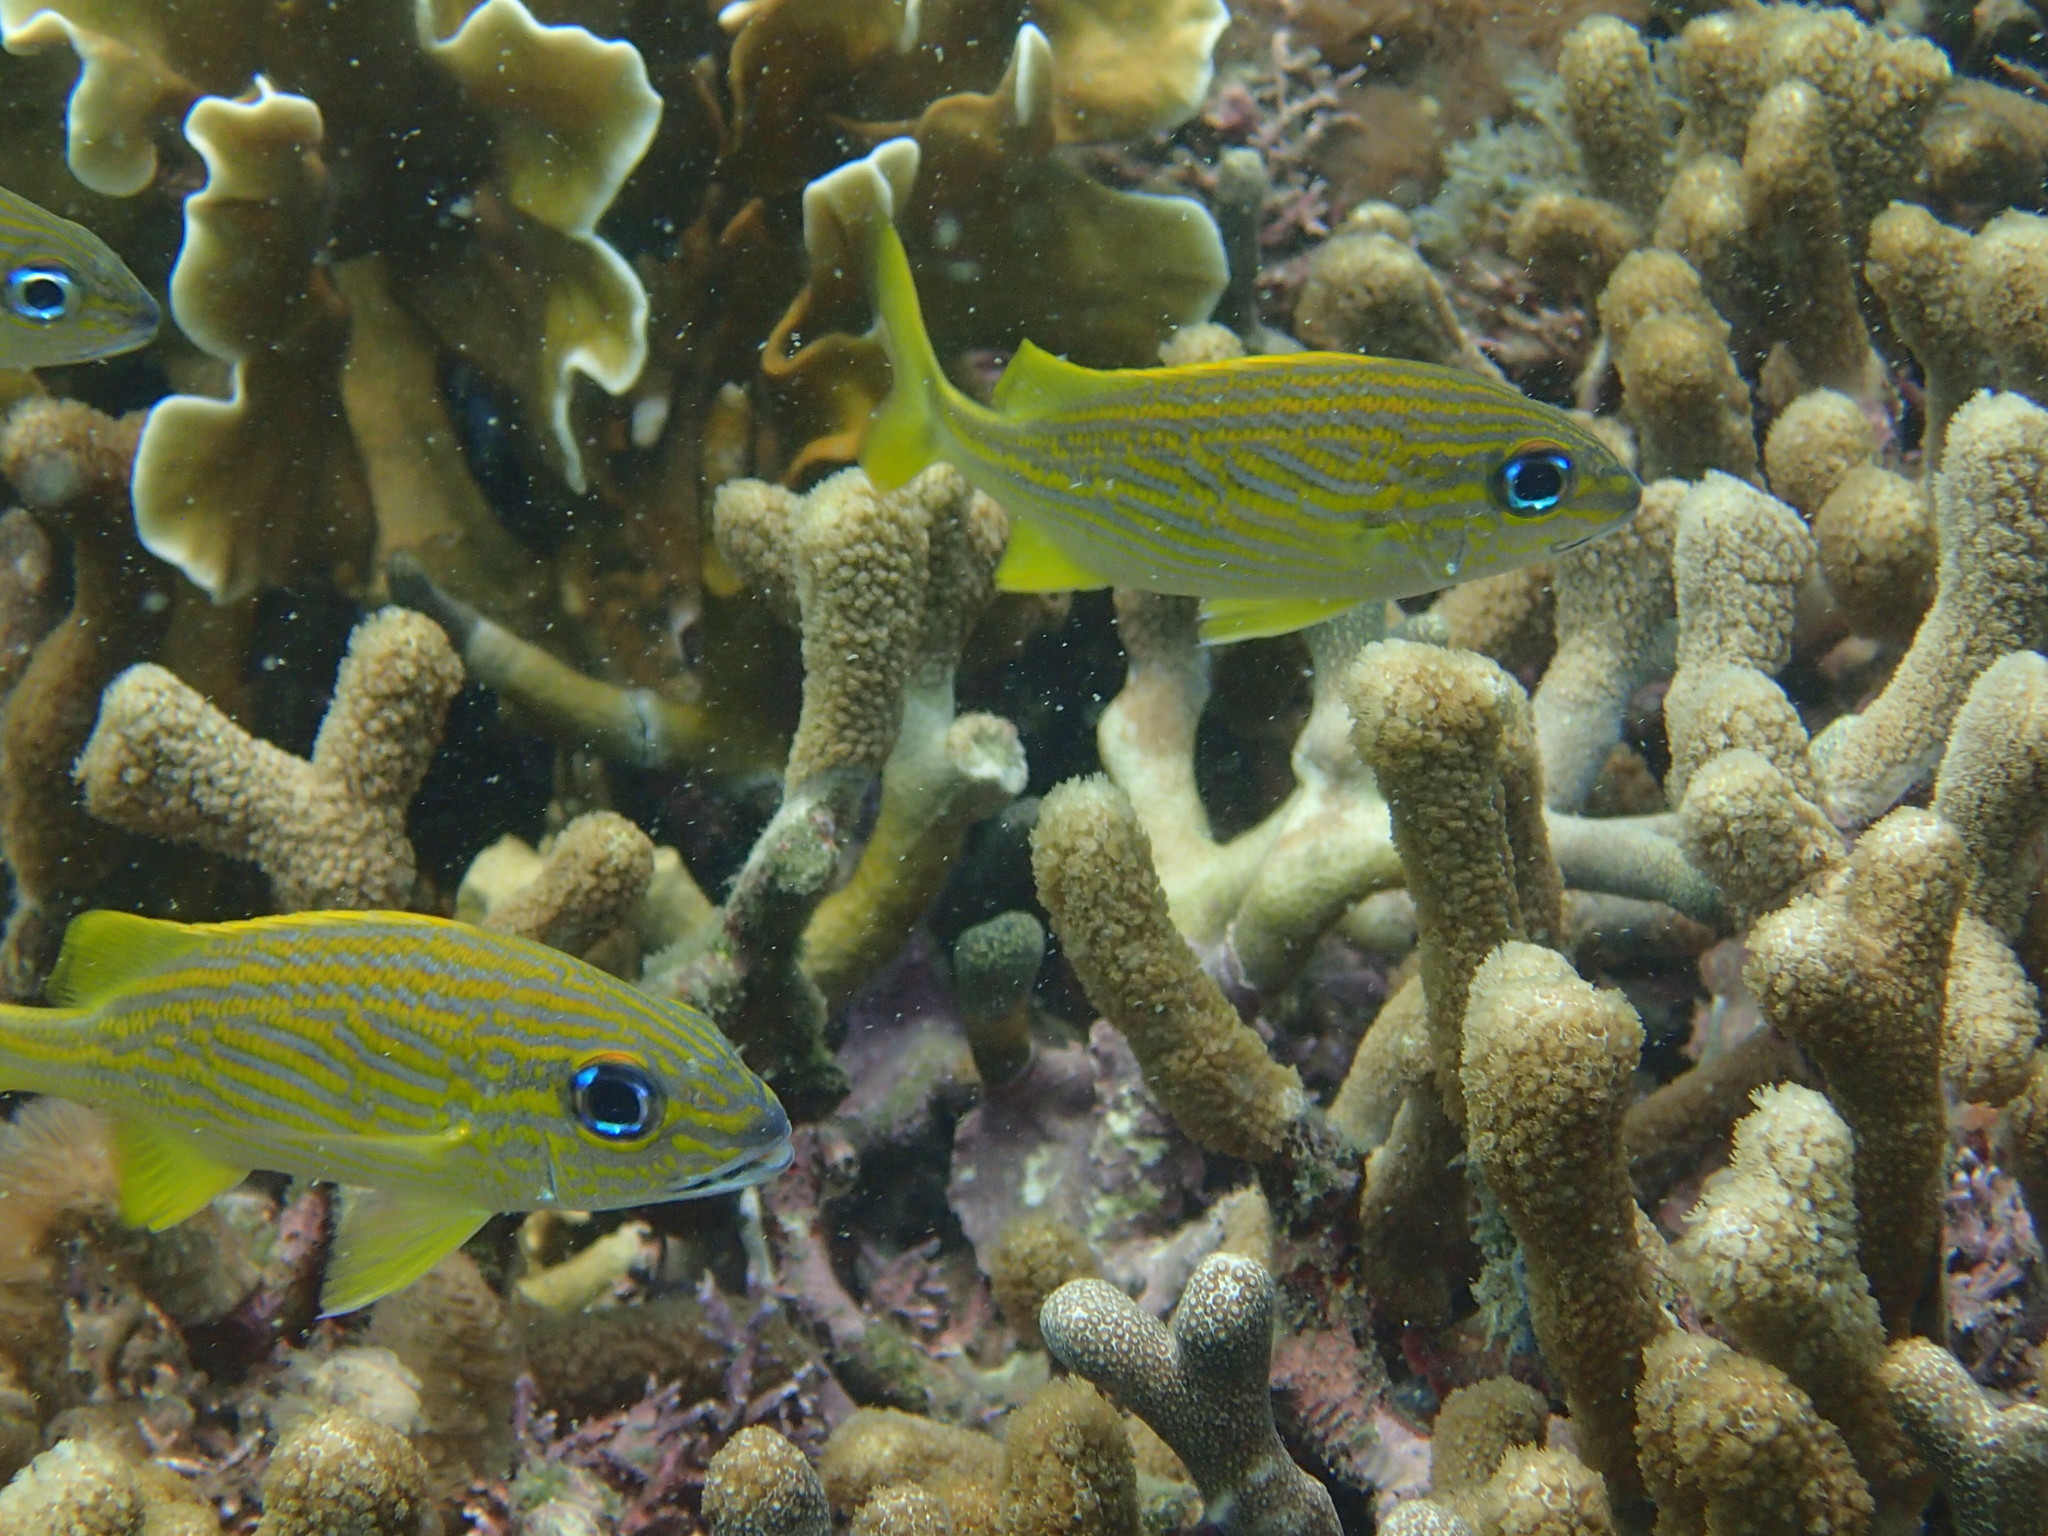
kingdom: Animalia
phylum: Chordata
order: Perciformes
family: Haemulidae
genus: Haemulon
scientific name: Haemulon flavolineatum
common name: French grunt
